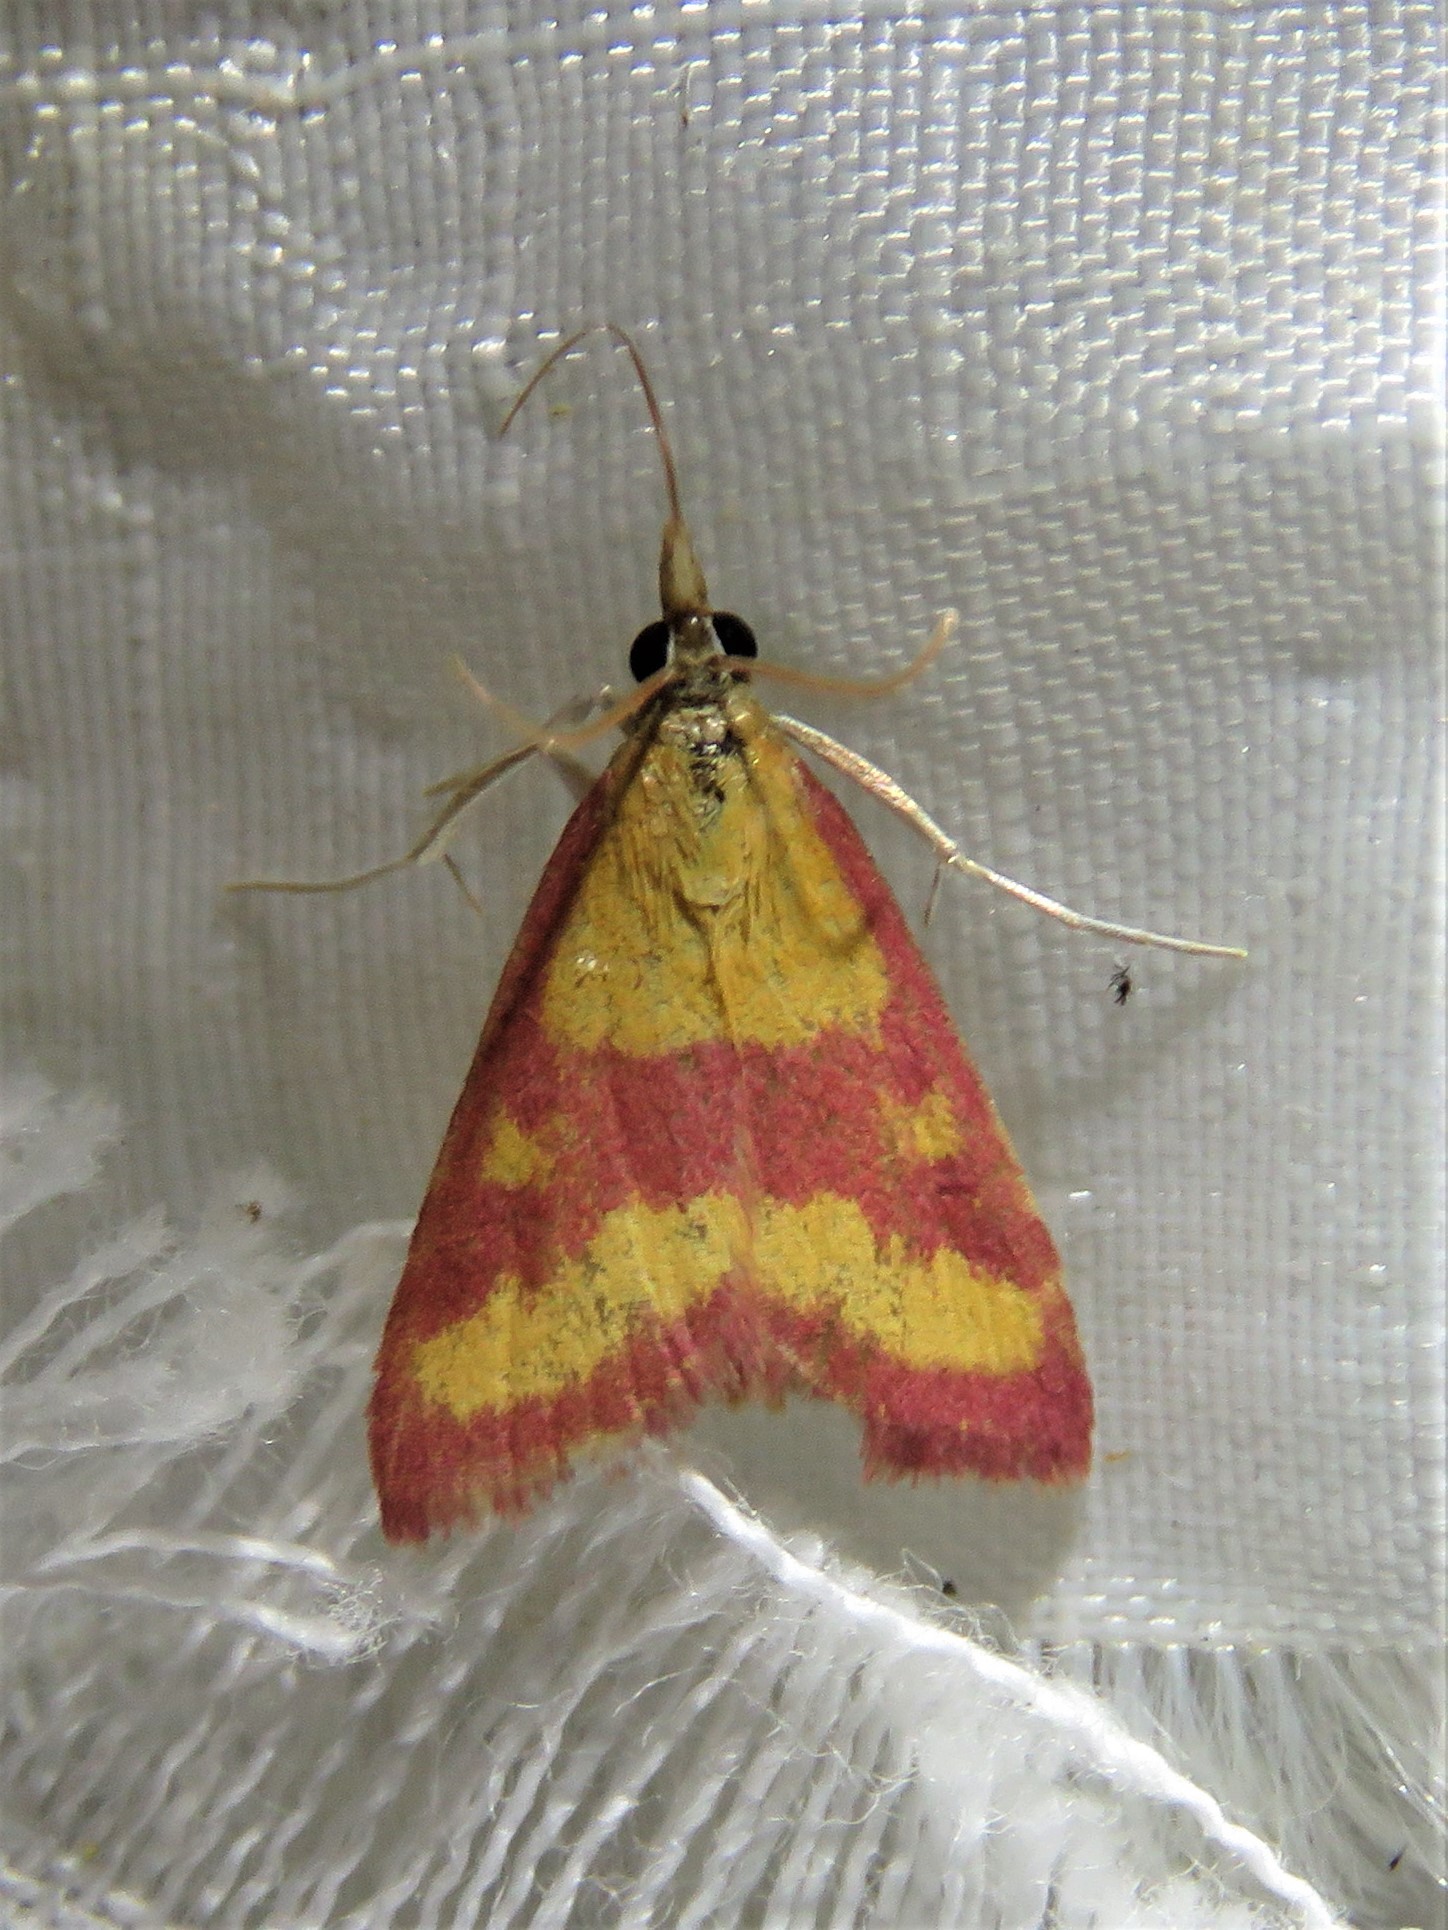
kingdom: Animalia
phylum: Arthropoda
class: Insecta
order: Lepidoptera
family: Crambidae
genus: Pyrausta
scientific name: Pyrausta laticlavia
